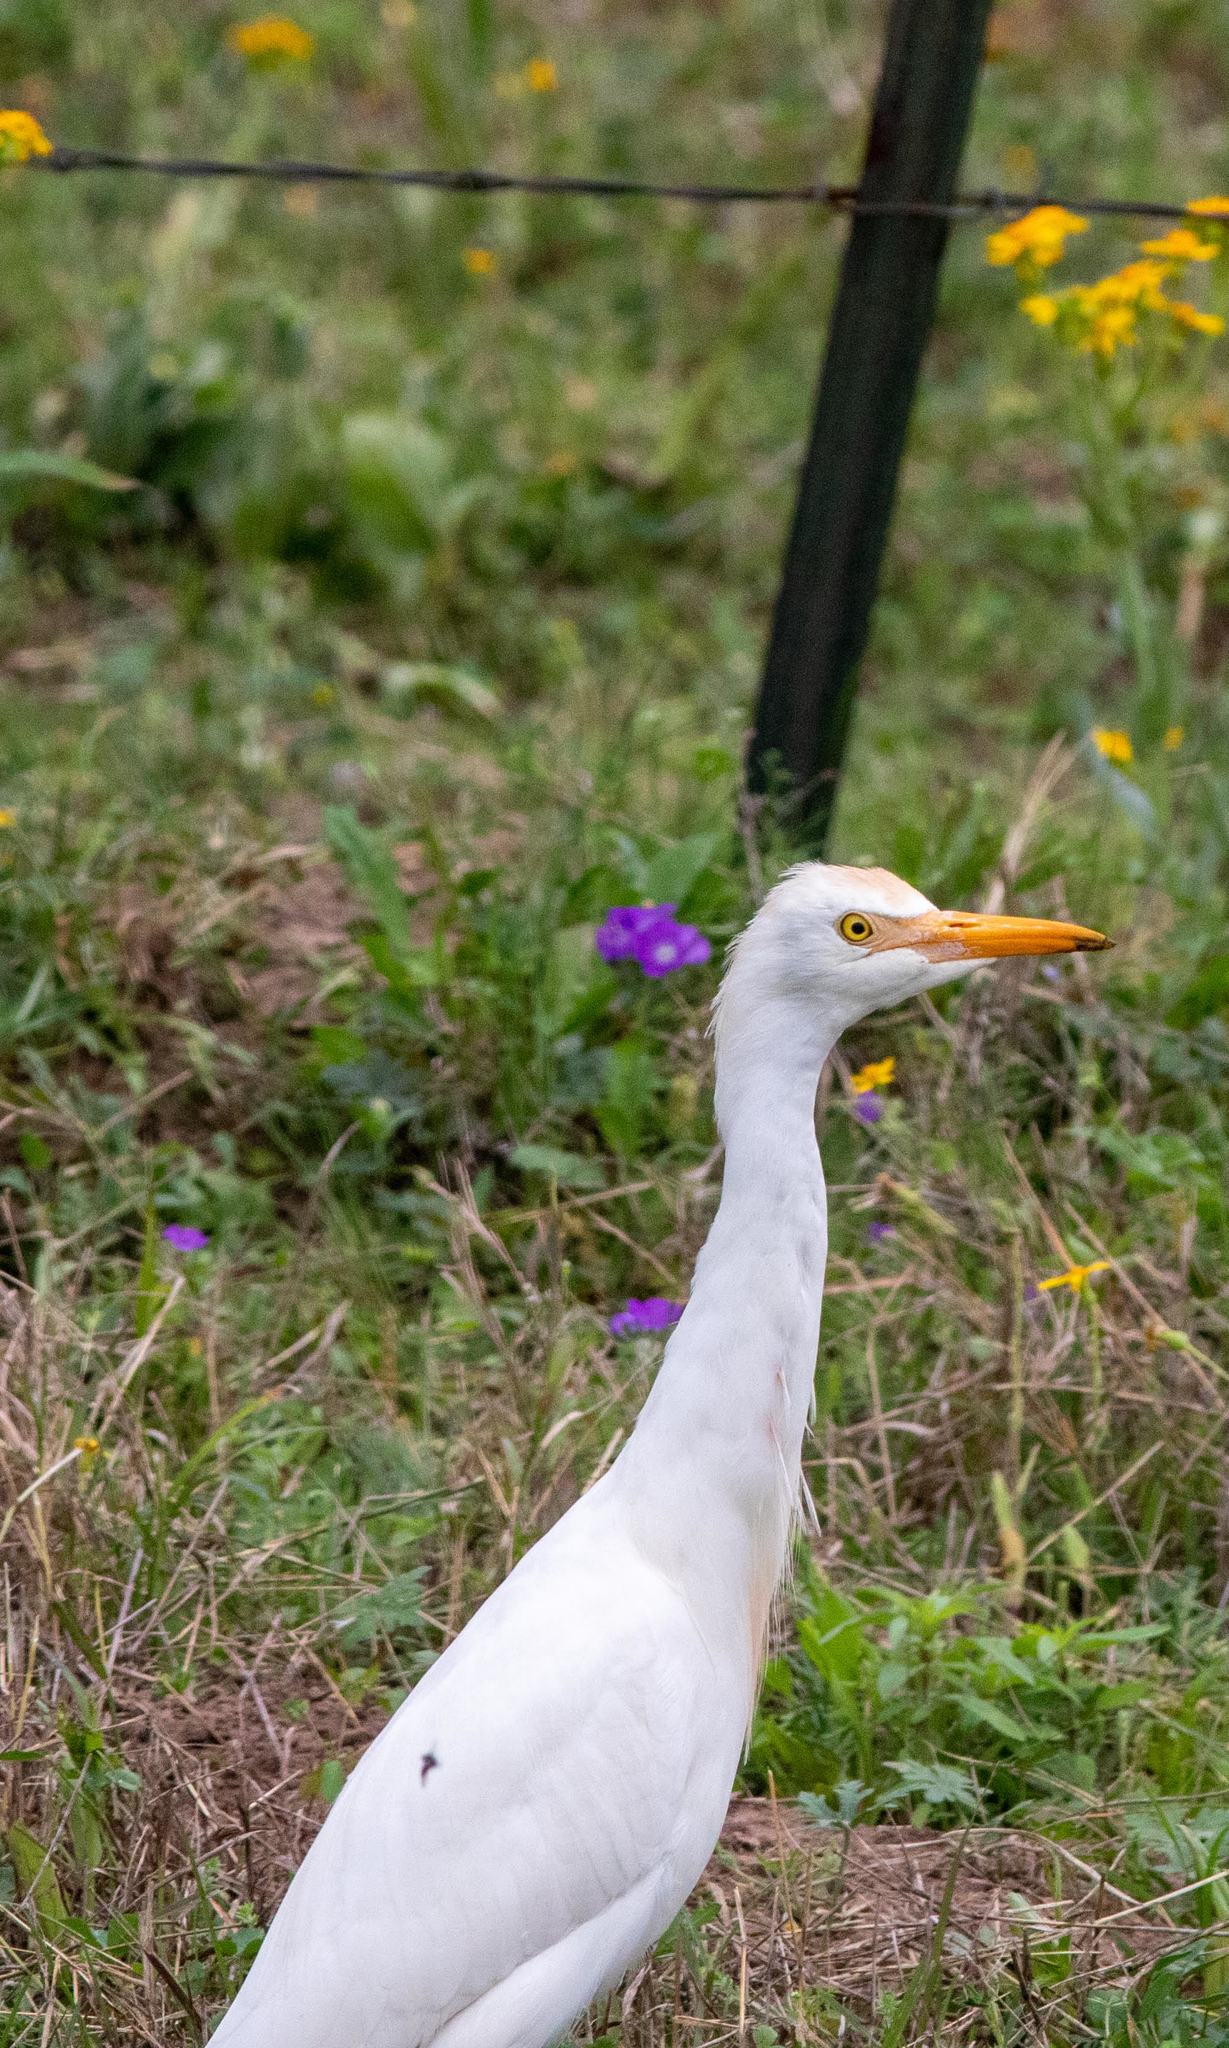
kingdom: Animalia
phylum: Chordata
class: Aves
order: Pelecaniformes
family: Ardeidae
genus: Bubulcus
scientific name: Bubulcus ibis
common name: Cattle egret
